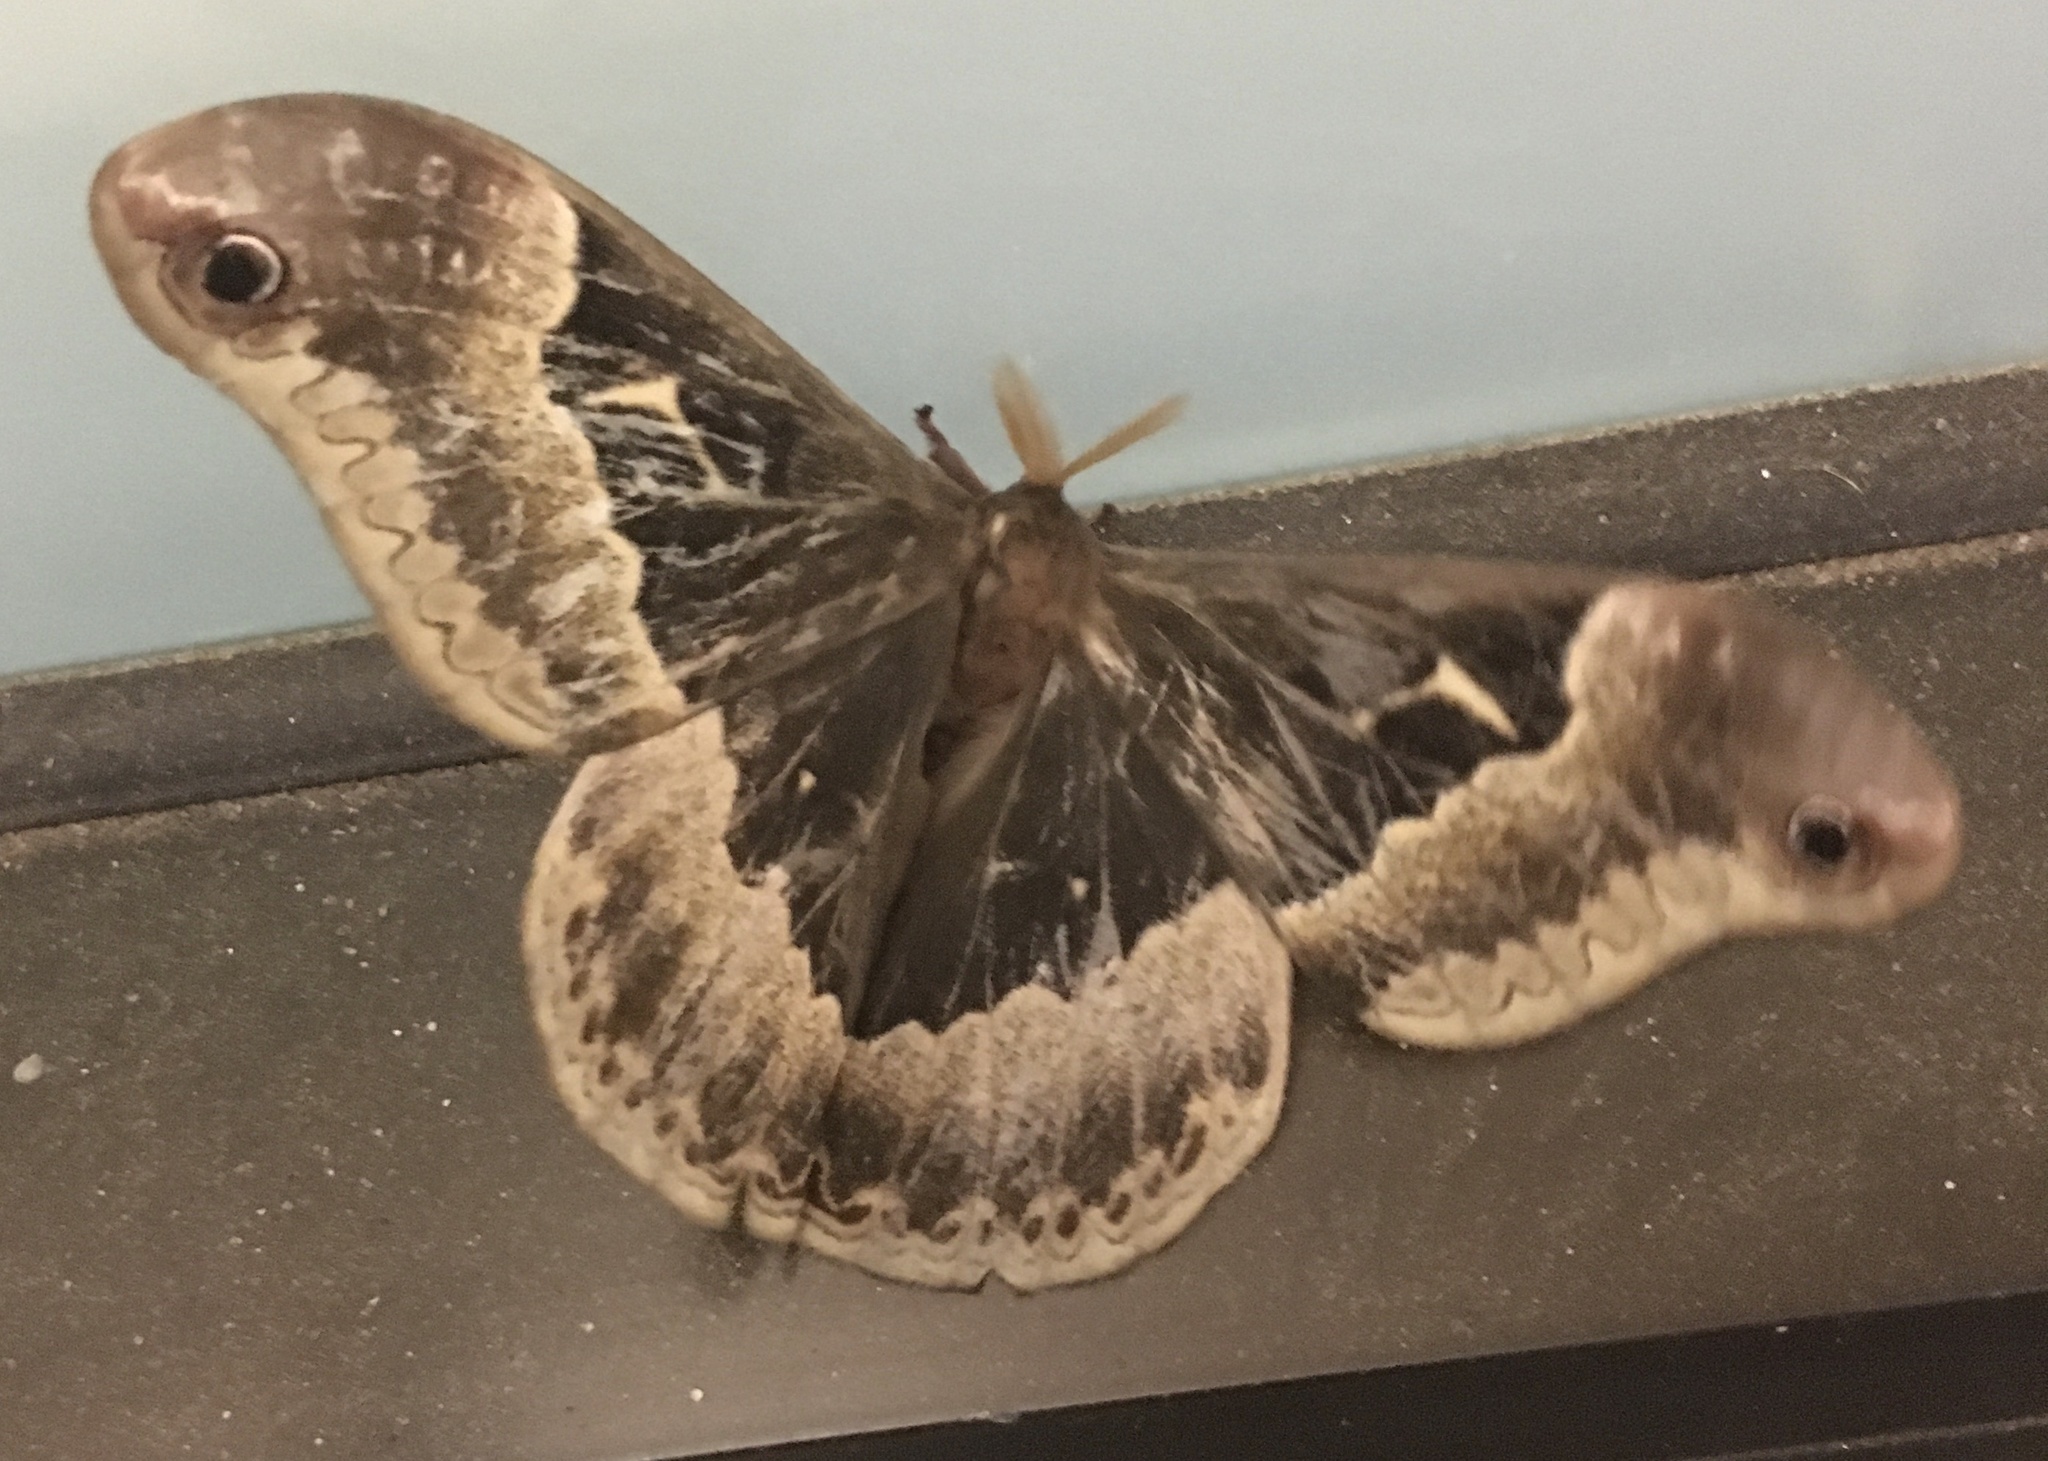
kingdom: Animalia
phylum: Arthropoda
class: Insecta
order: Lepidoptera
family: Saturniidae
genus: Callosamia
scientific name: Callosamia angulifera
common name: Tulip tree silkmoth
